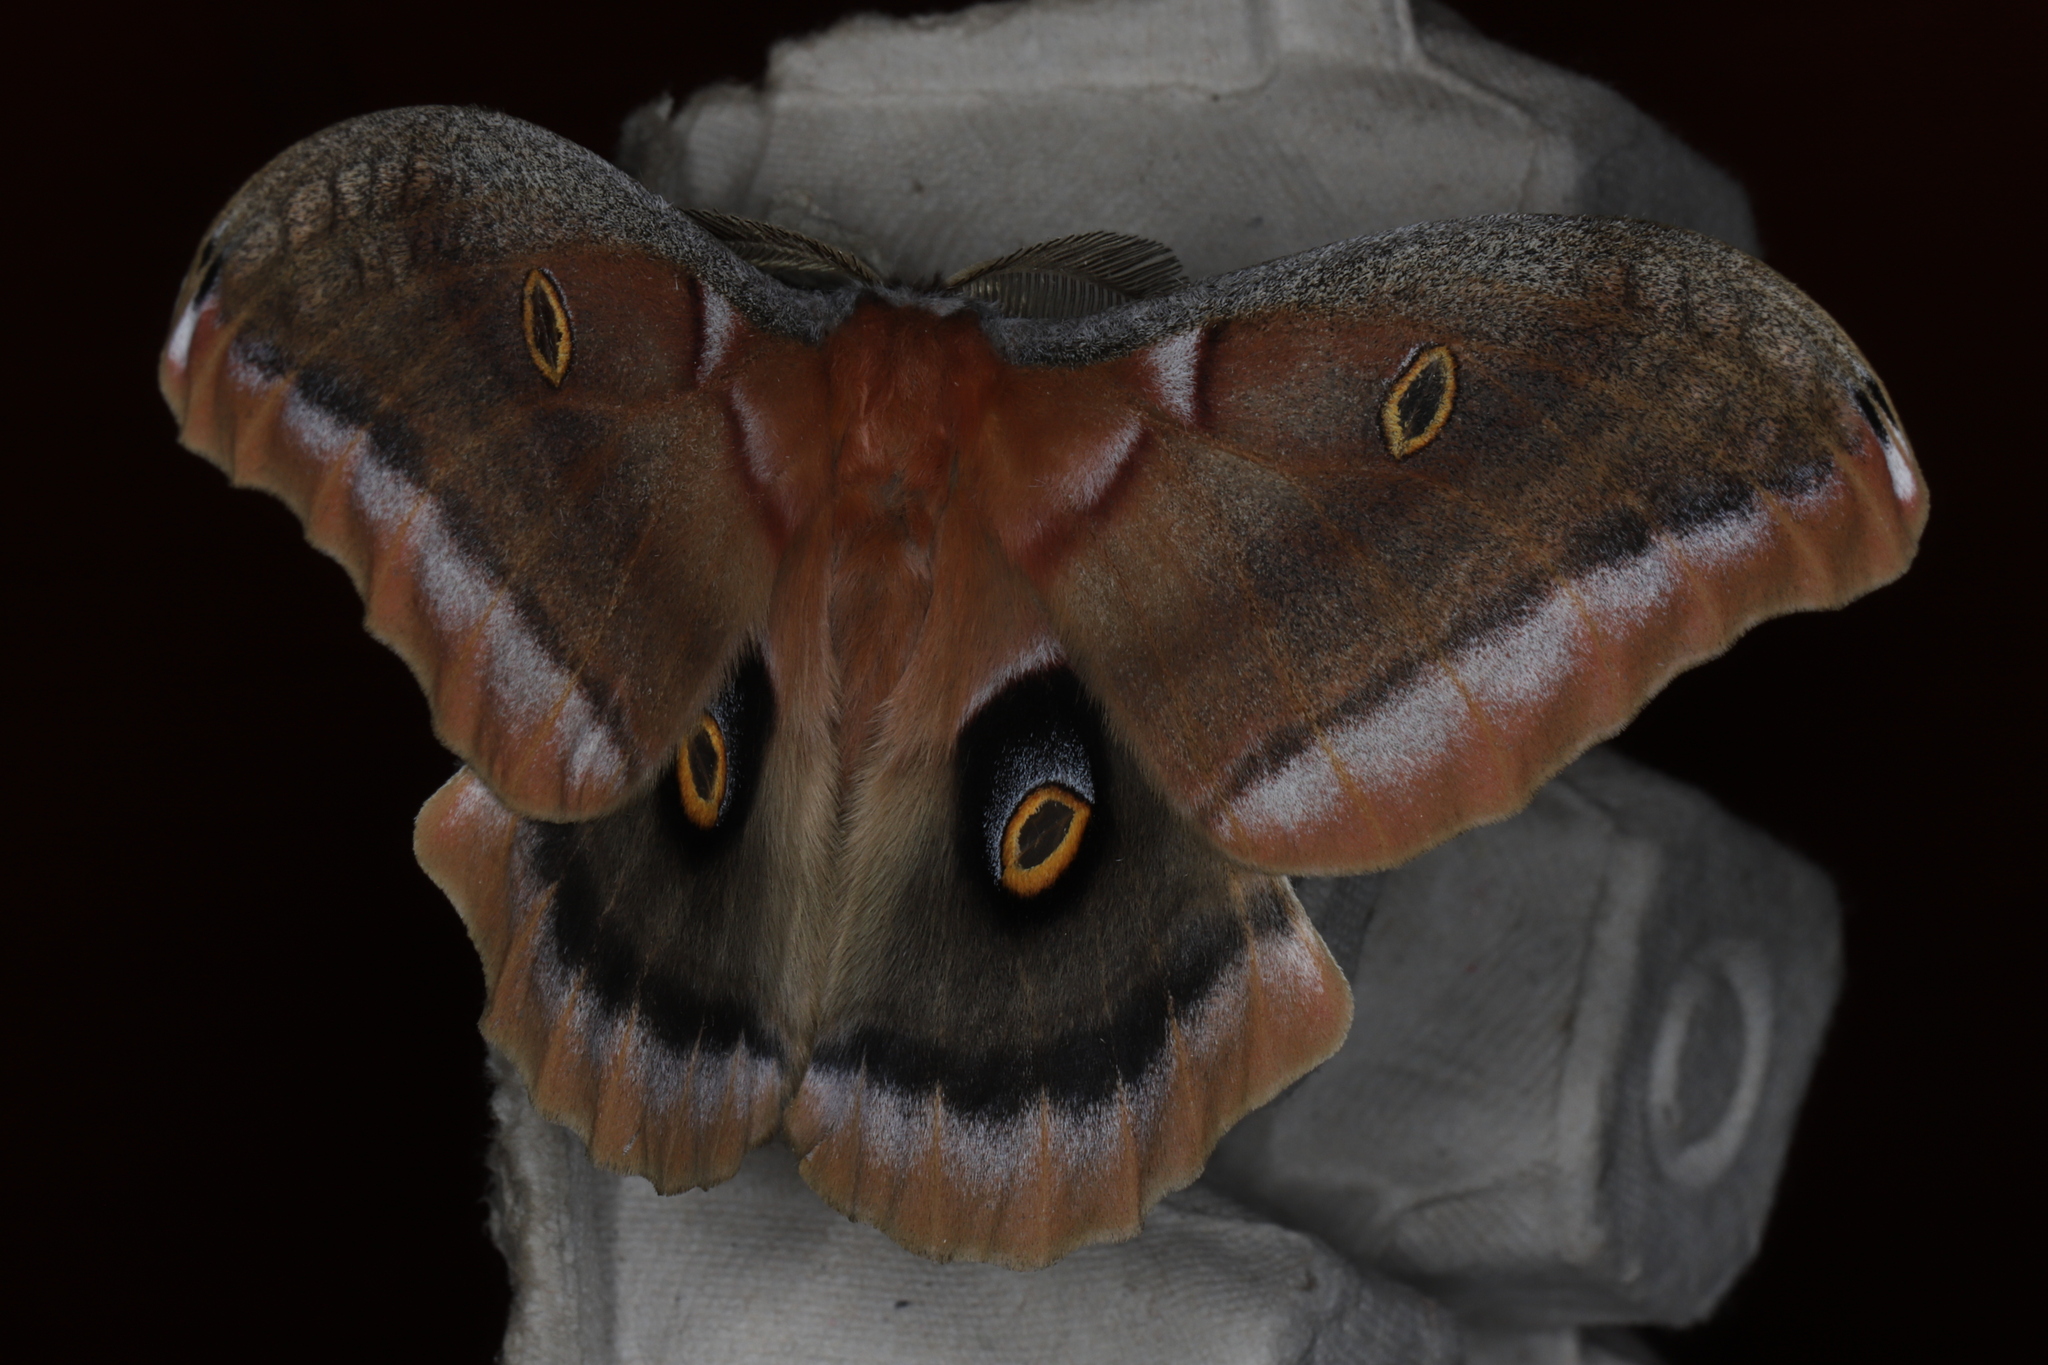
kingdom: Animalia
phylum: Arthropoda
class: Insecta
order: Lepidoptera
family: Saturniidae
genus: Antheraea
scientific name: Antheraea polyphemus
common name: Polyphemus moth
